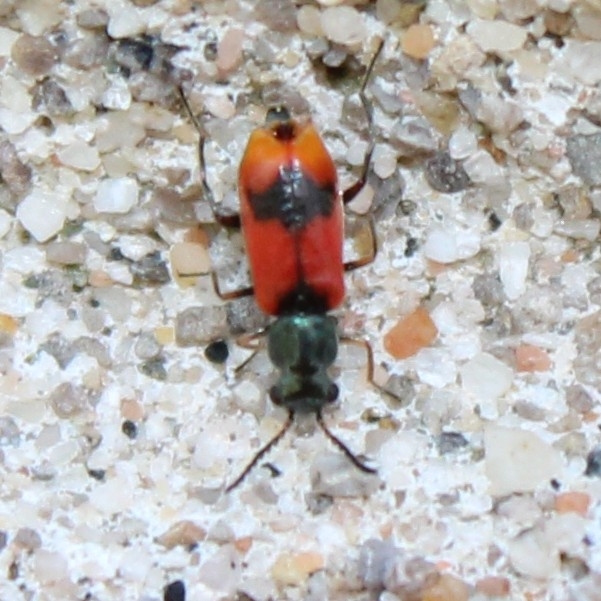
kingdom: Animalia
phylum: Arthropoda
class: Insecta
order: Coleoptera
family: Melyridae
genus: Anthocomus
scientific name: Anthocomus equestris
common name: Black-banded soft-winged flower beetle
